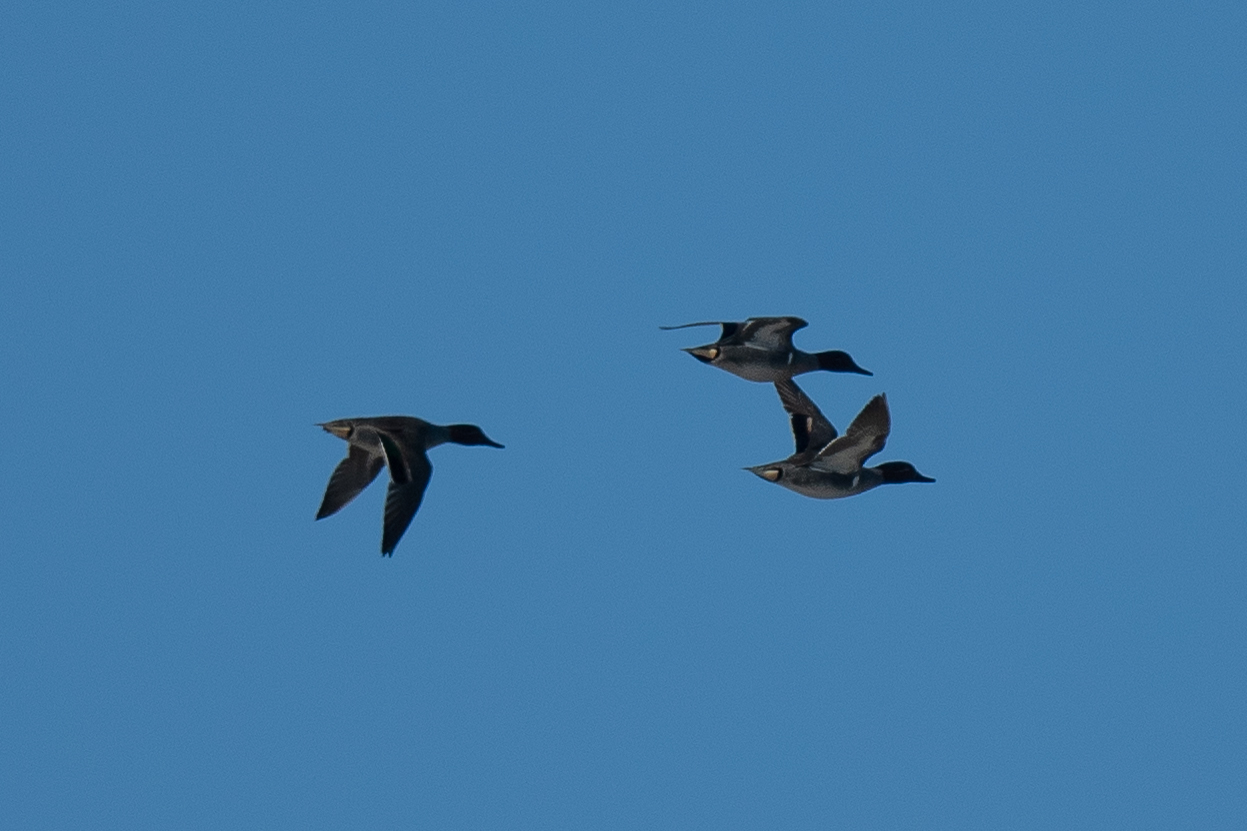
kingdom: Animalia
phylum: Chordata
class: Aves
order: Anseriformes
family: Anatidae
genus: Anas
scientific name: Anas crecca
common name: Eurasian teal
